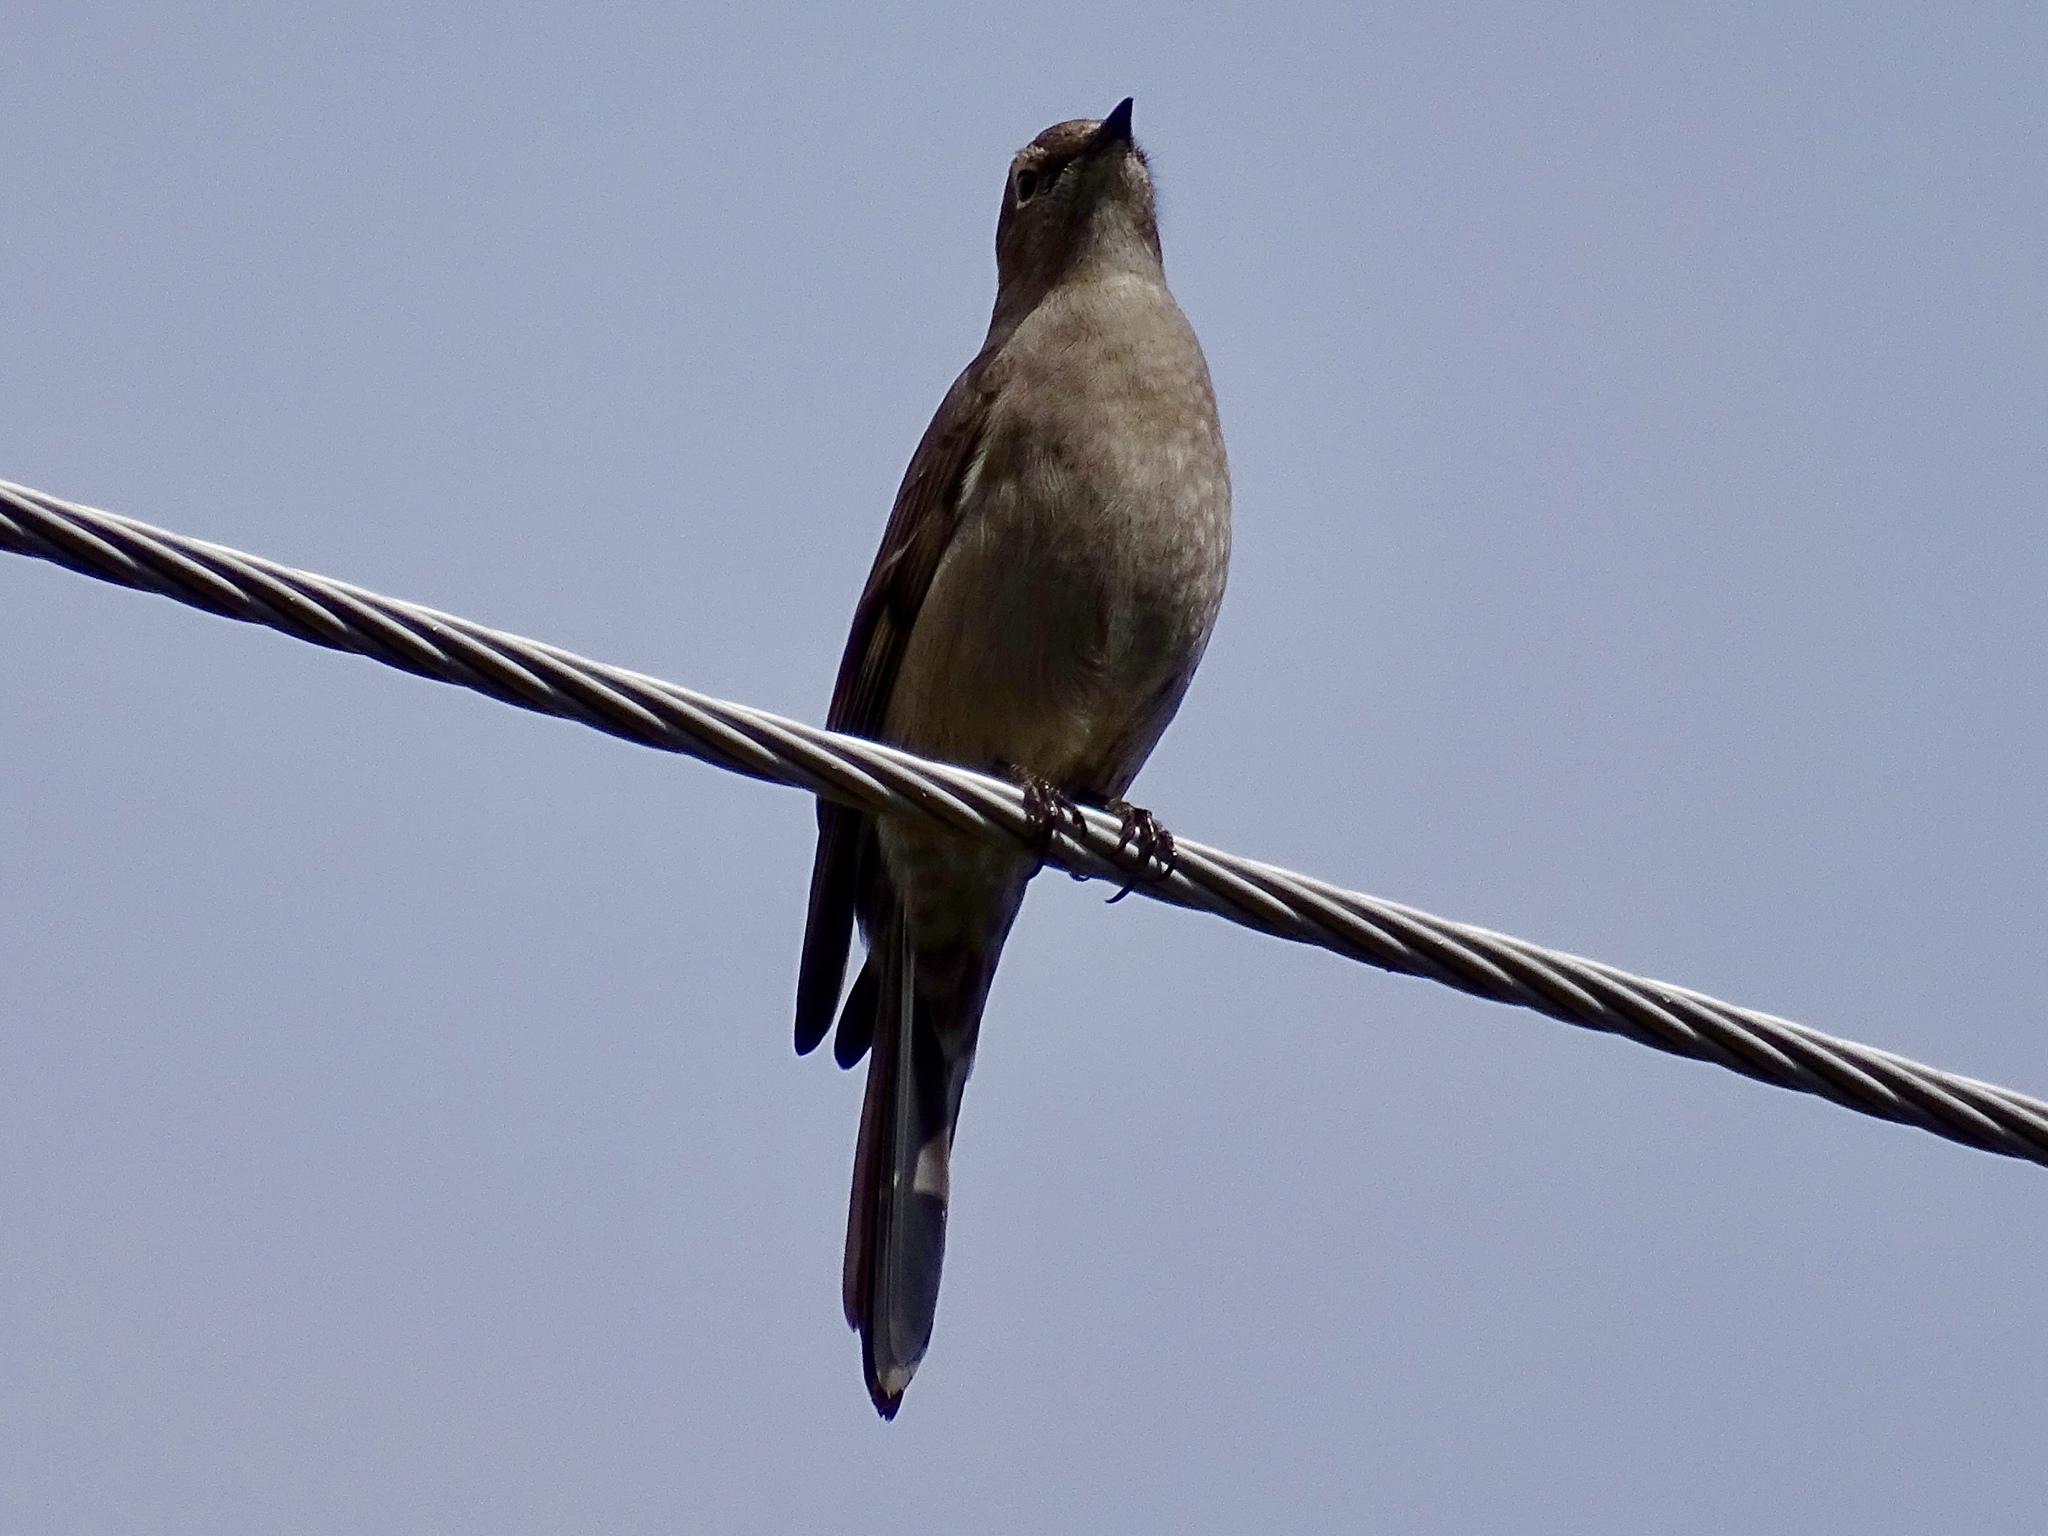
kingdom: Animalia
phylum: Chordata
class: Aves
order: Passeriformes
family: Turdidae
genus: Myadestes
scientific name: Myadestes townsendi
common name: Townsend's solitaire
